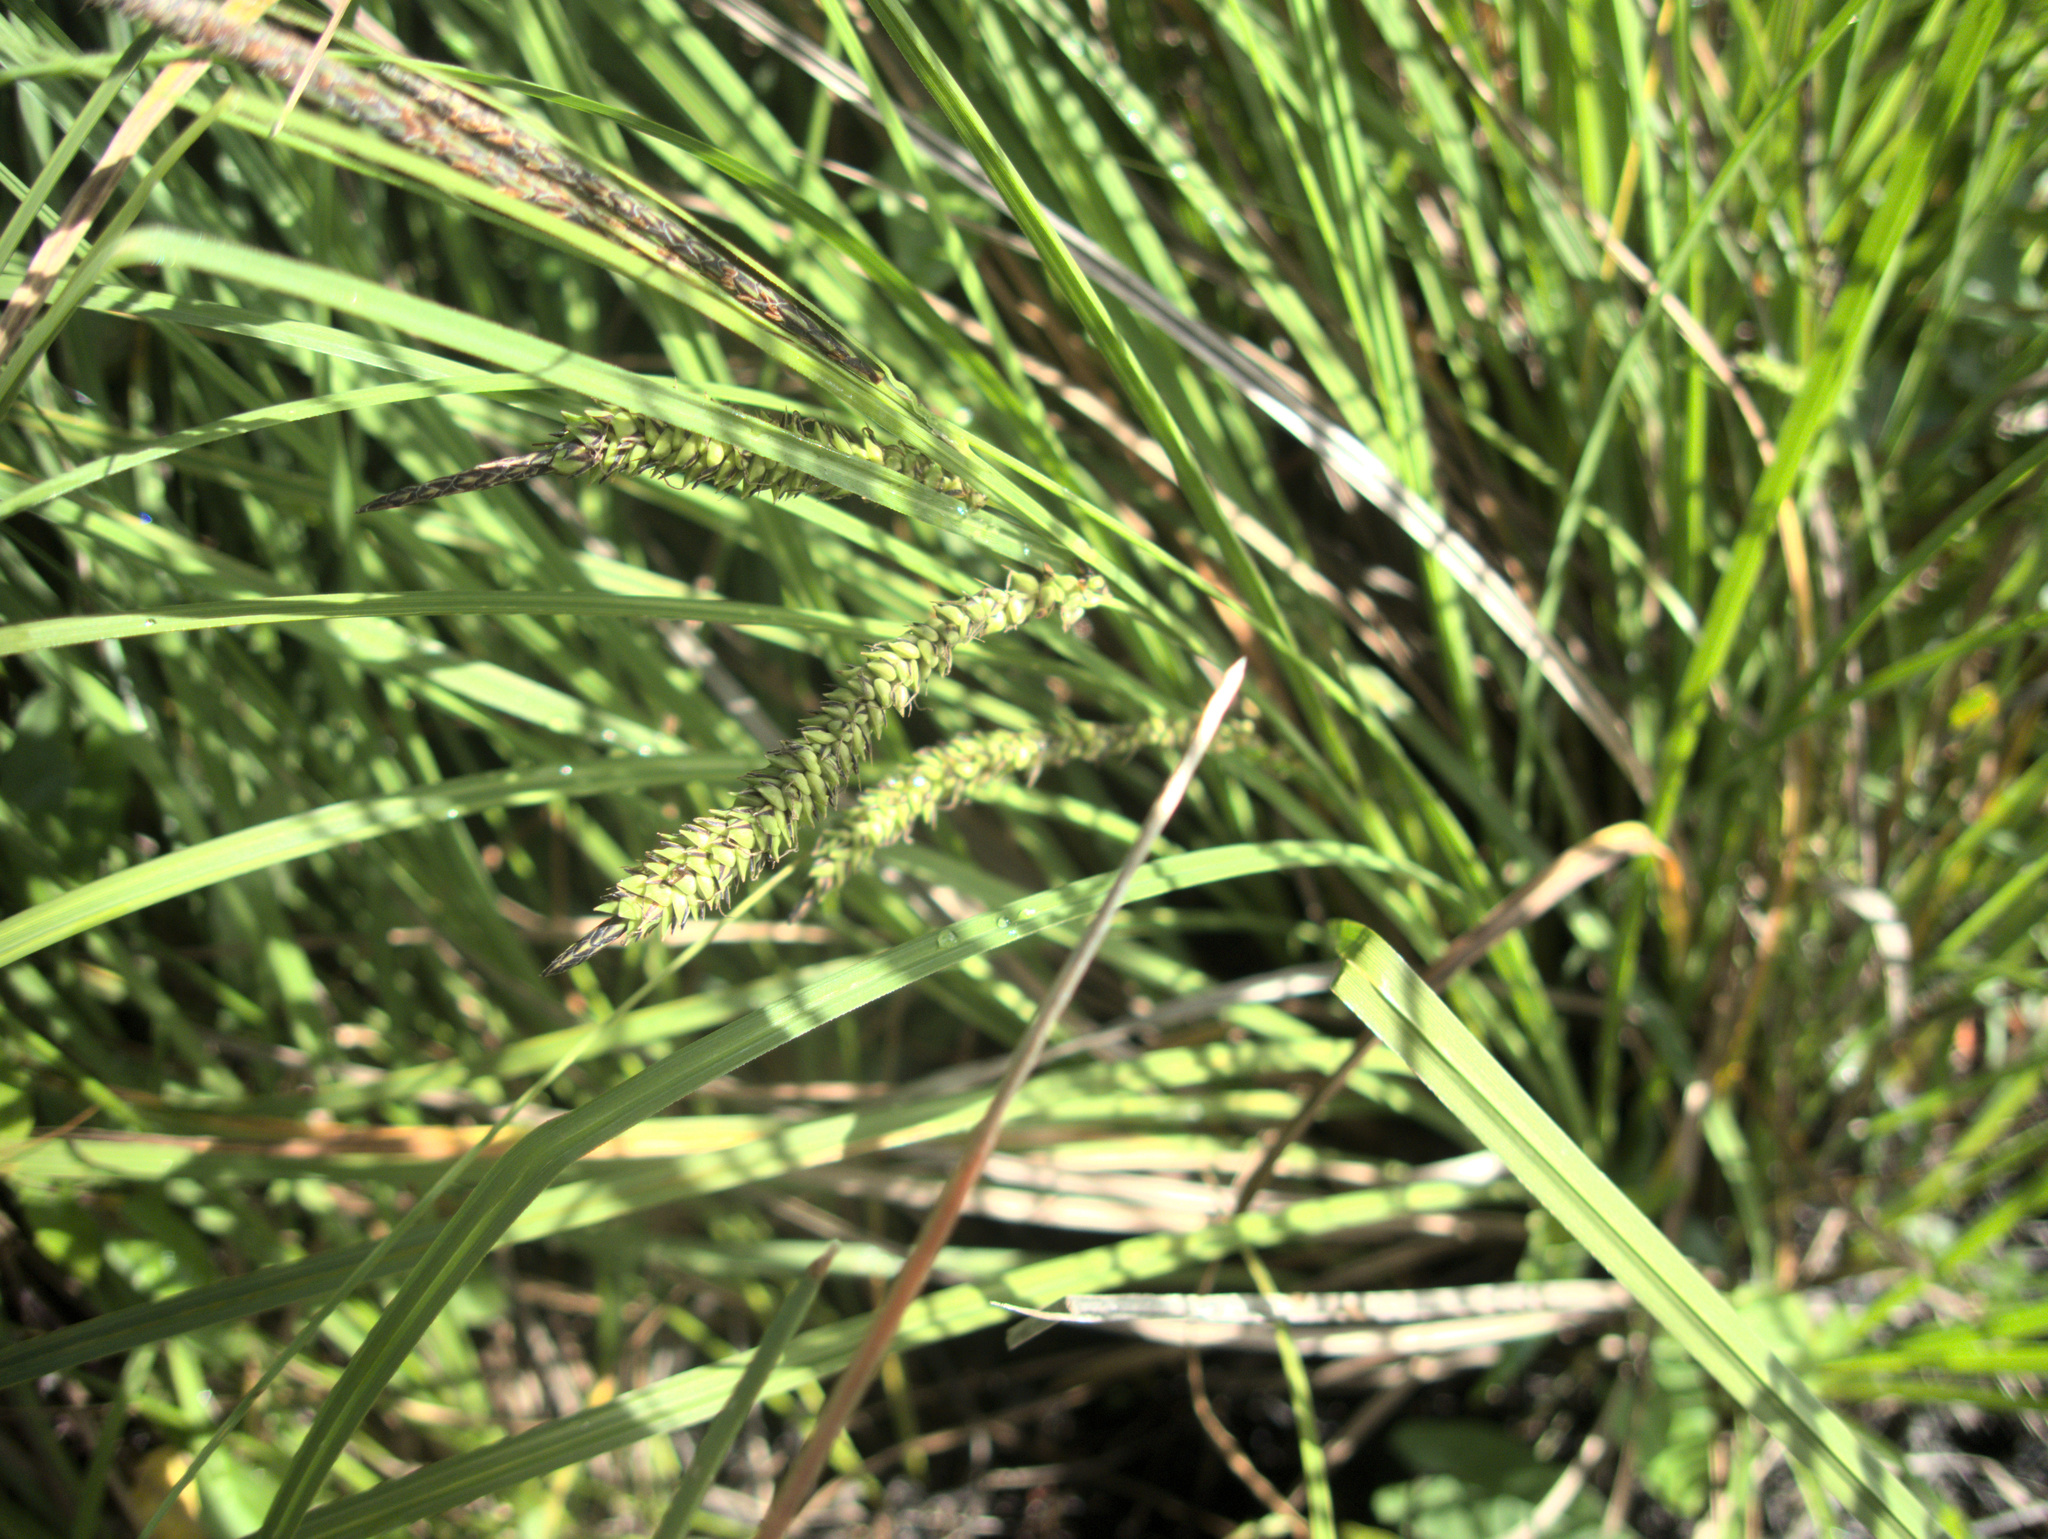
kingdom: Plantae
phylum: Tracheophyta
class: Liliopsida
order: Poales
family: Cyperaceae
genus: Carex
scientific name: Carex subdola
